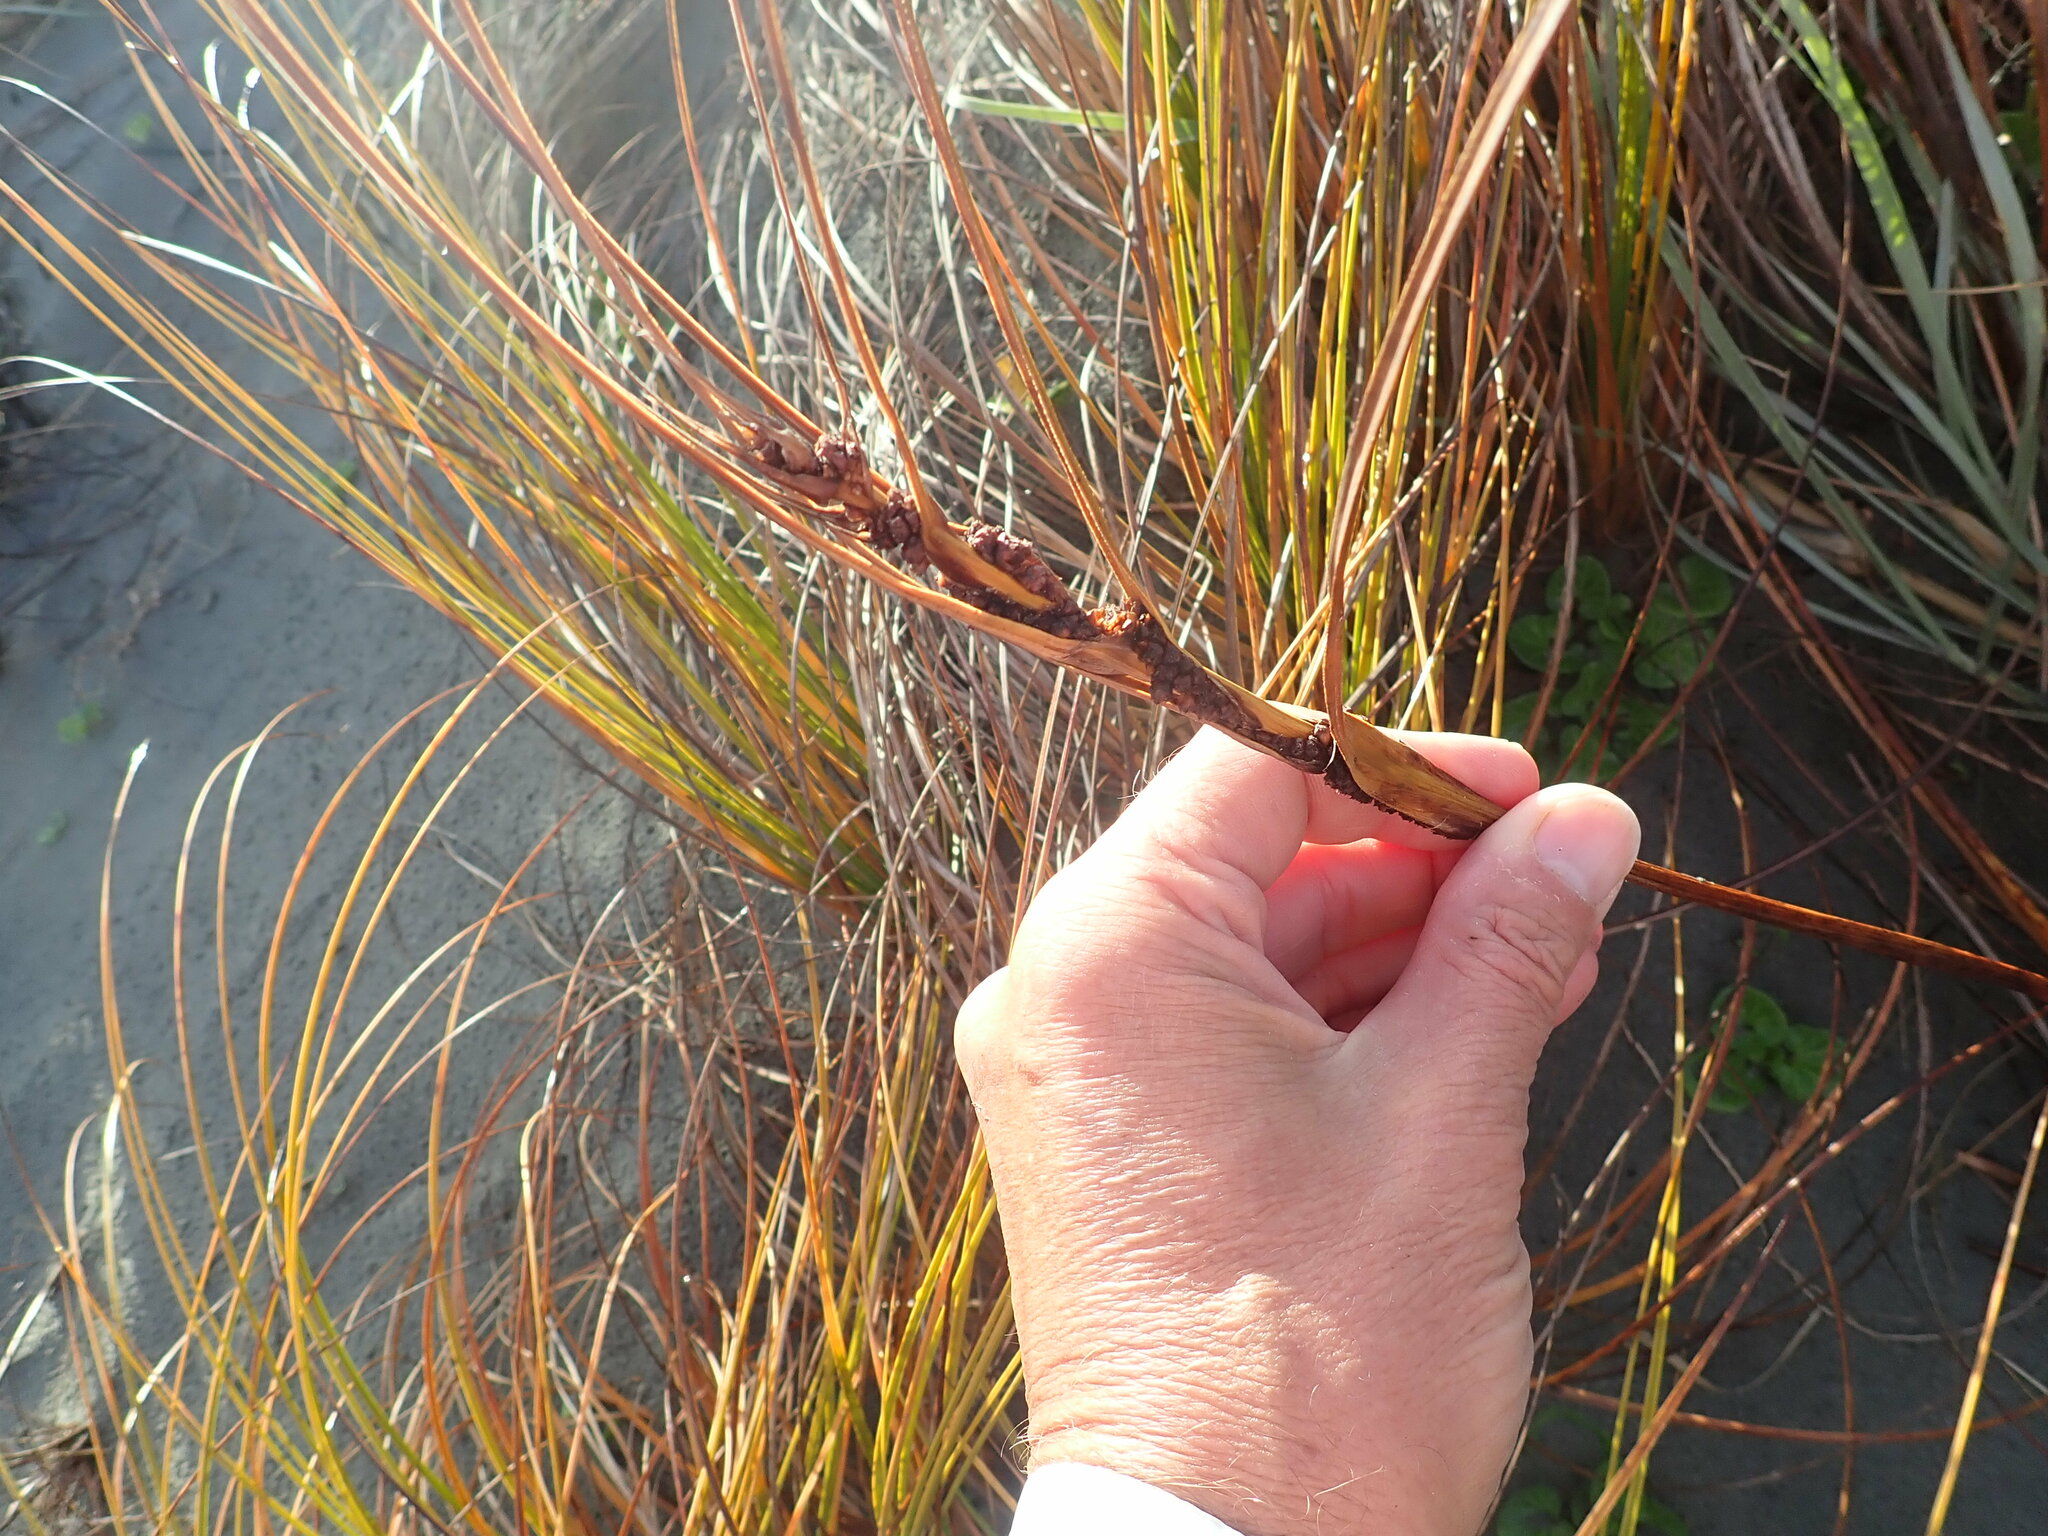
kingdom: Plantae
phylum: Tracheophyta
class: Liliopsida
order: Poales
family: Cyperaceae
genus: Ficinia
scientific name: Ficinia spiralis
